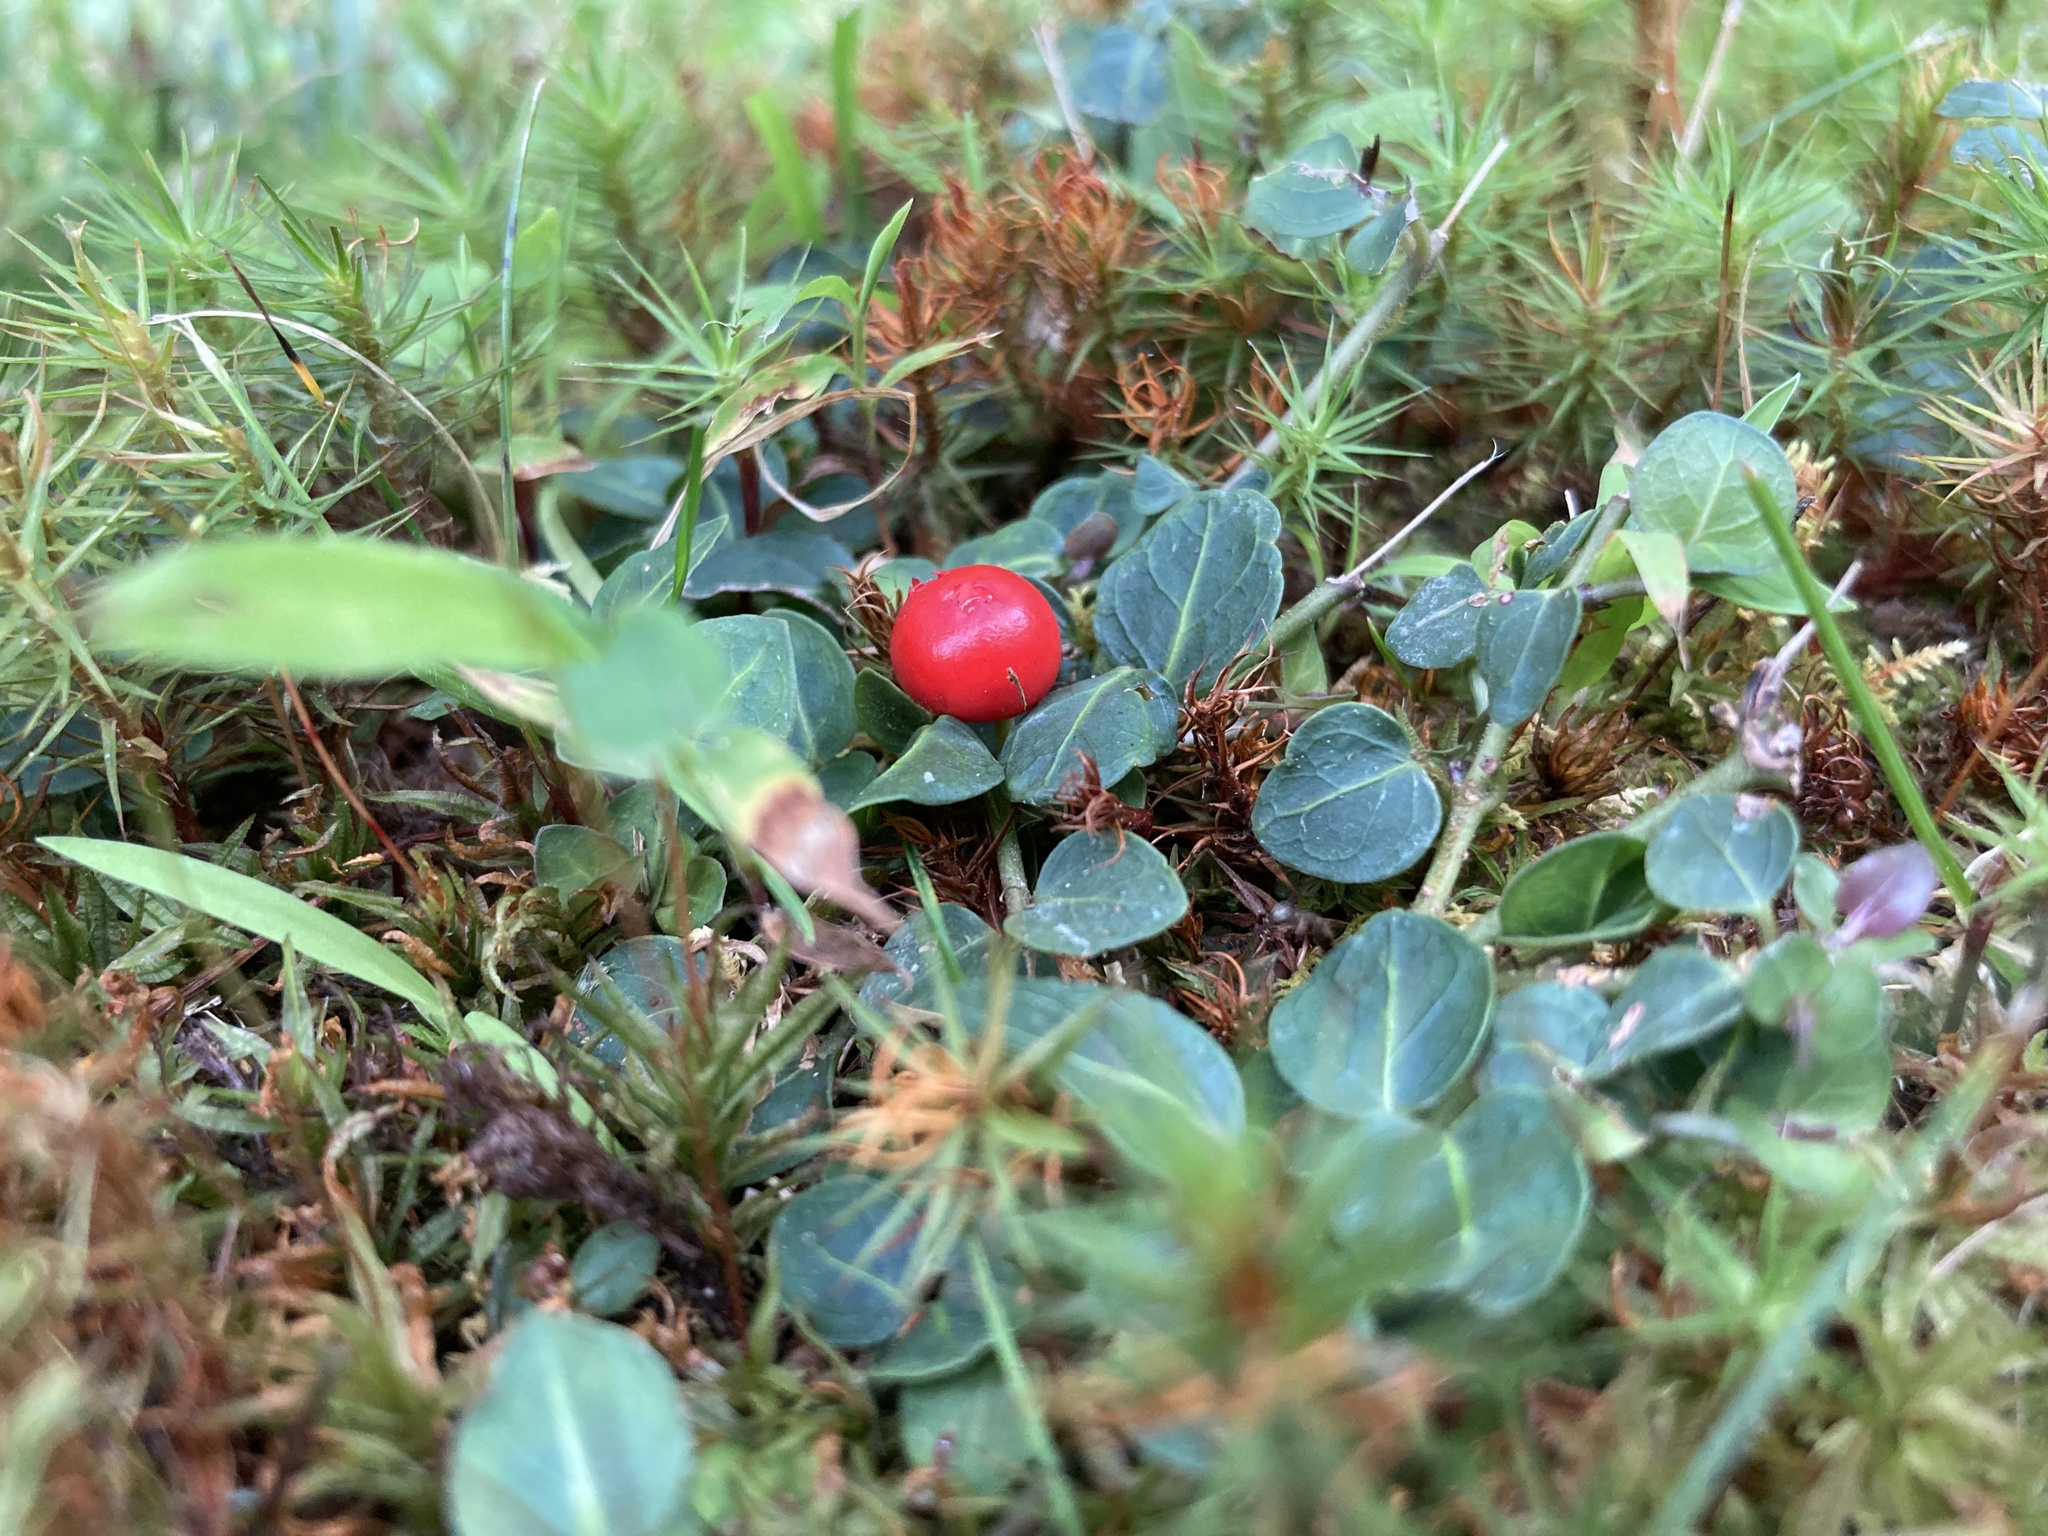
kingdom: Plantae
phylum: Tracheophyta
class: Magnoliopsida
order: Gentianales
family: Rubiaceae
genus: Mitchella
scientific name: Mitchella repens
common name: Partridge-berry
